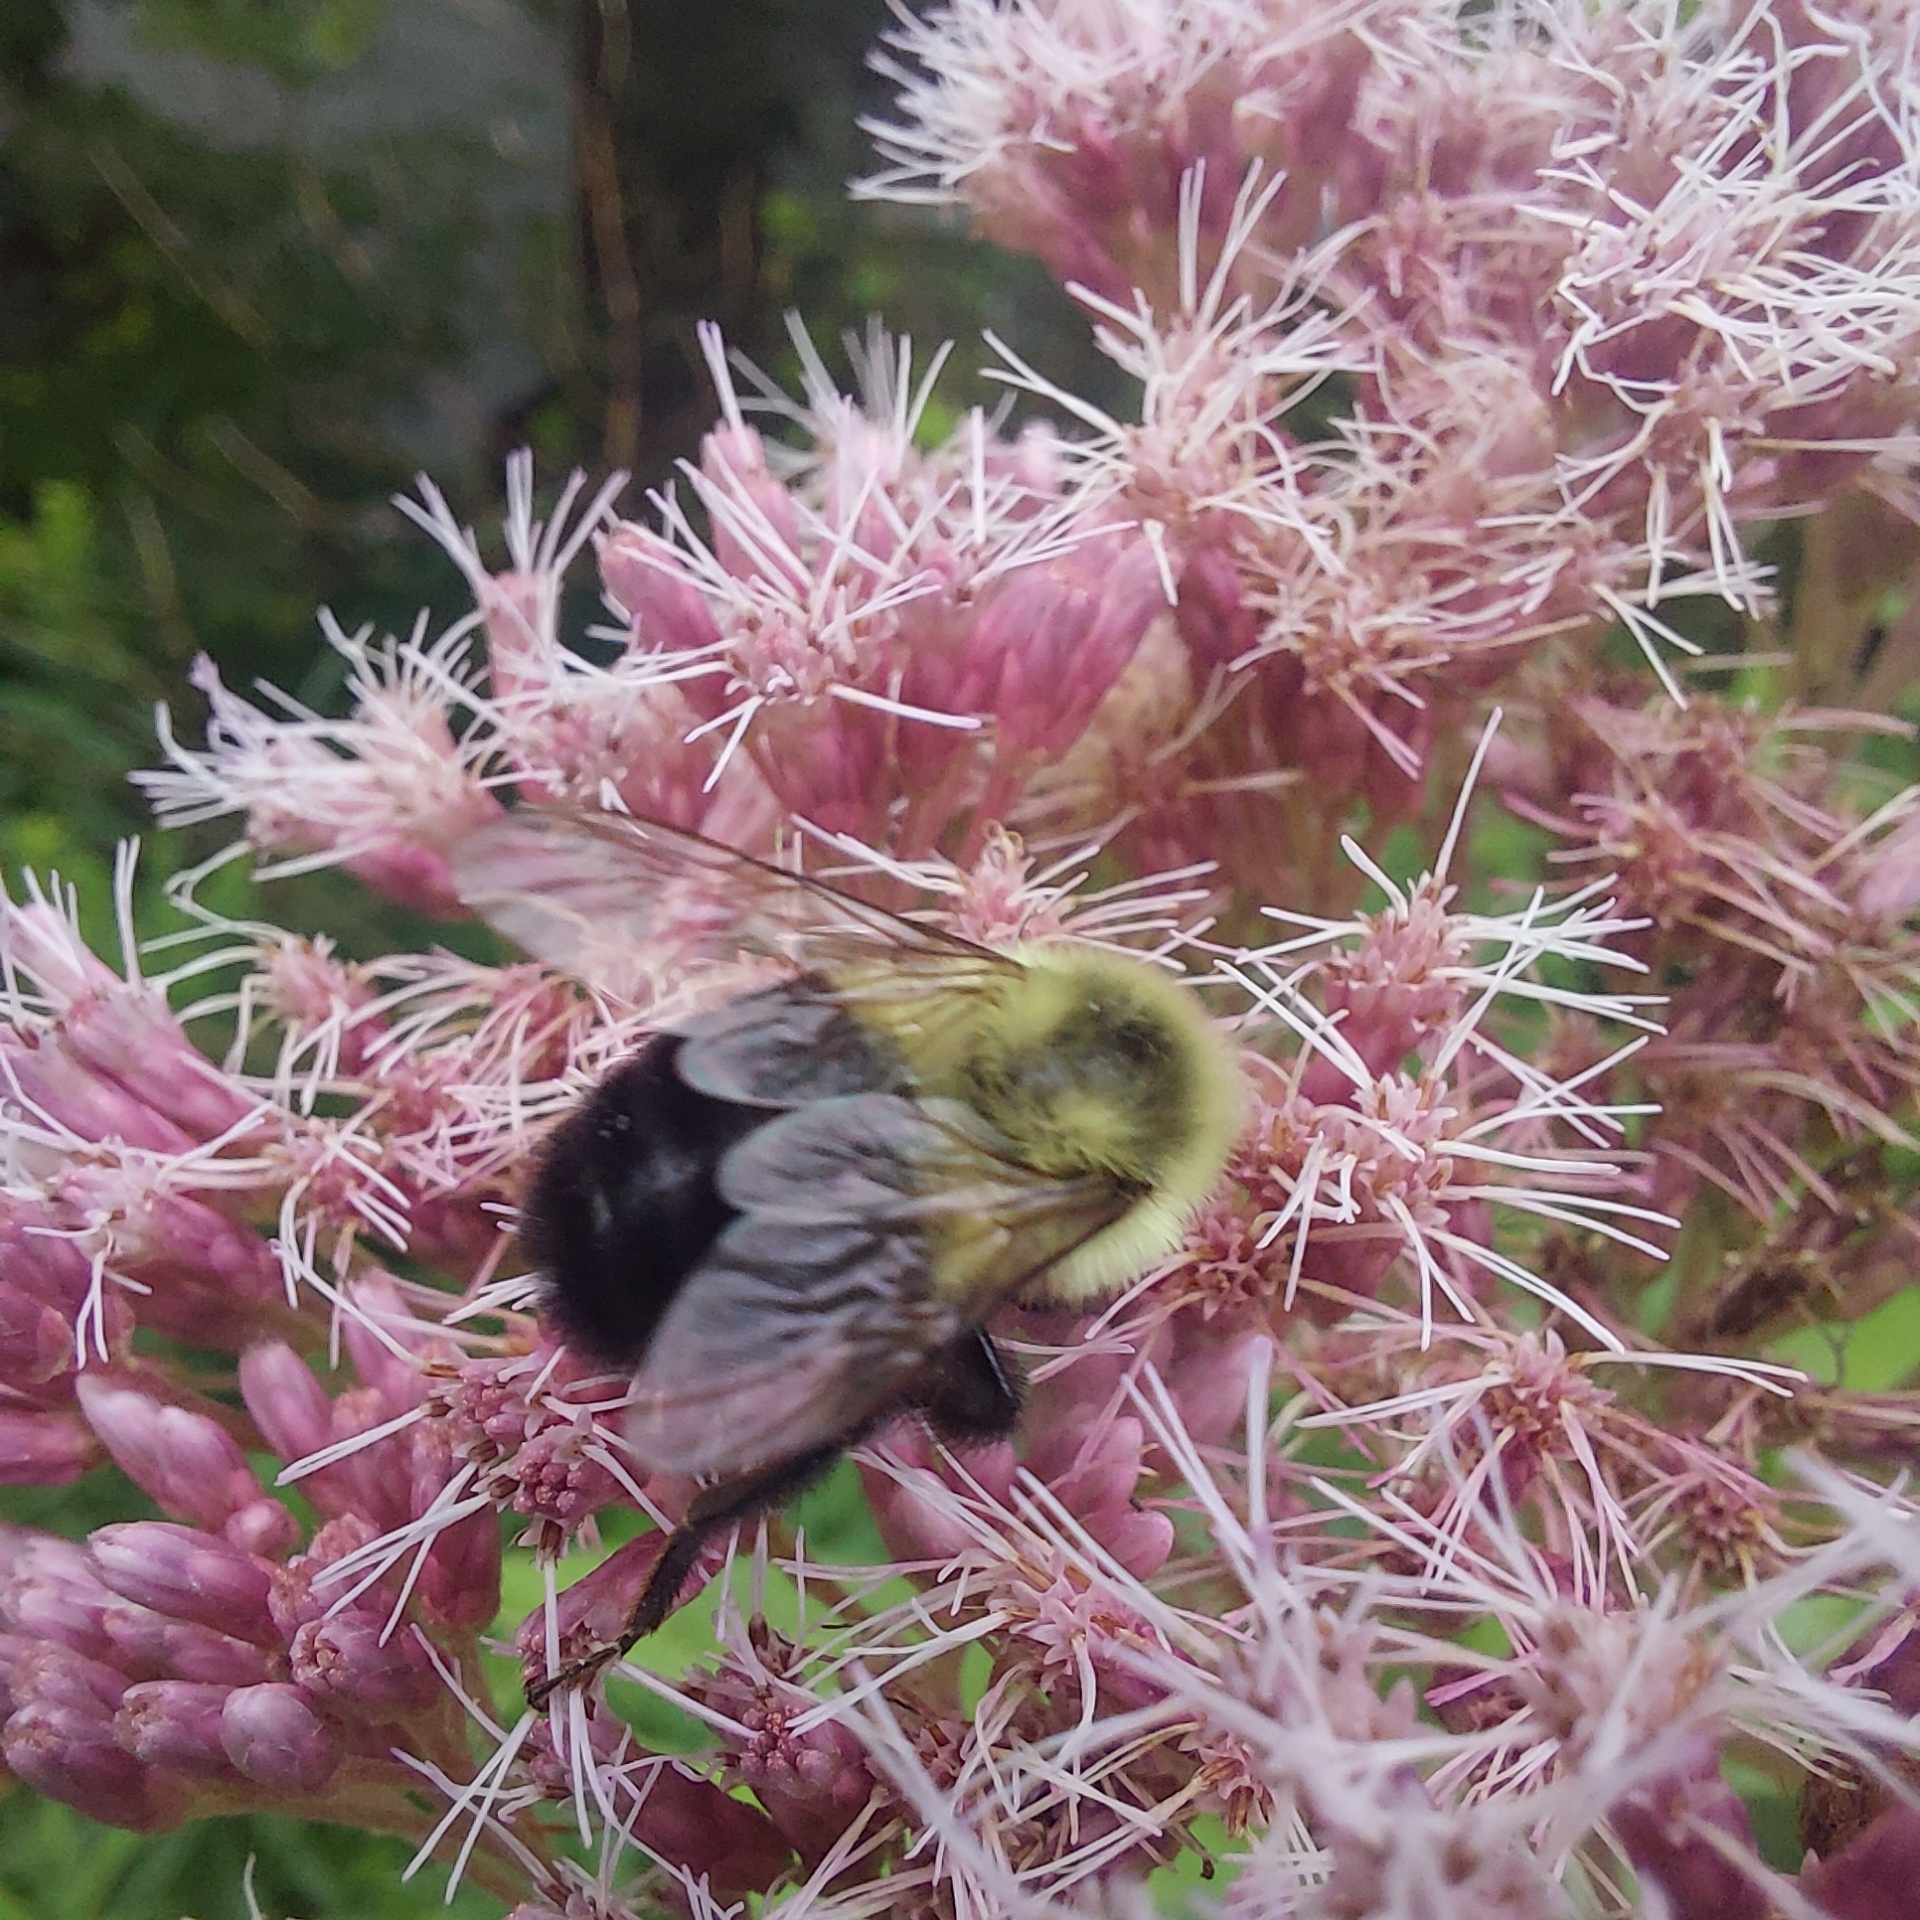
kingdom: Animalia
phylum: Arthropoda
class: Insecta
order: Hymenoptera
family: Apidae
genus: Bombus
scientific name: Bombus impatiens
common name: Common eastern bumble bee
